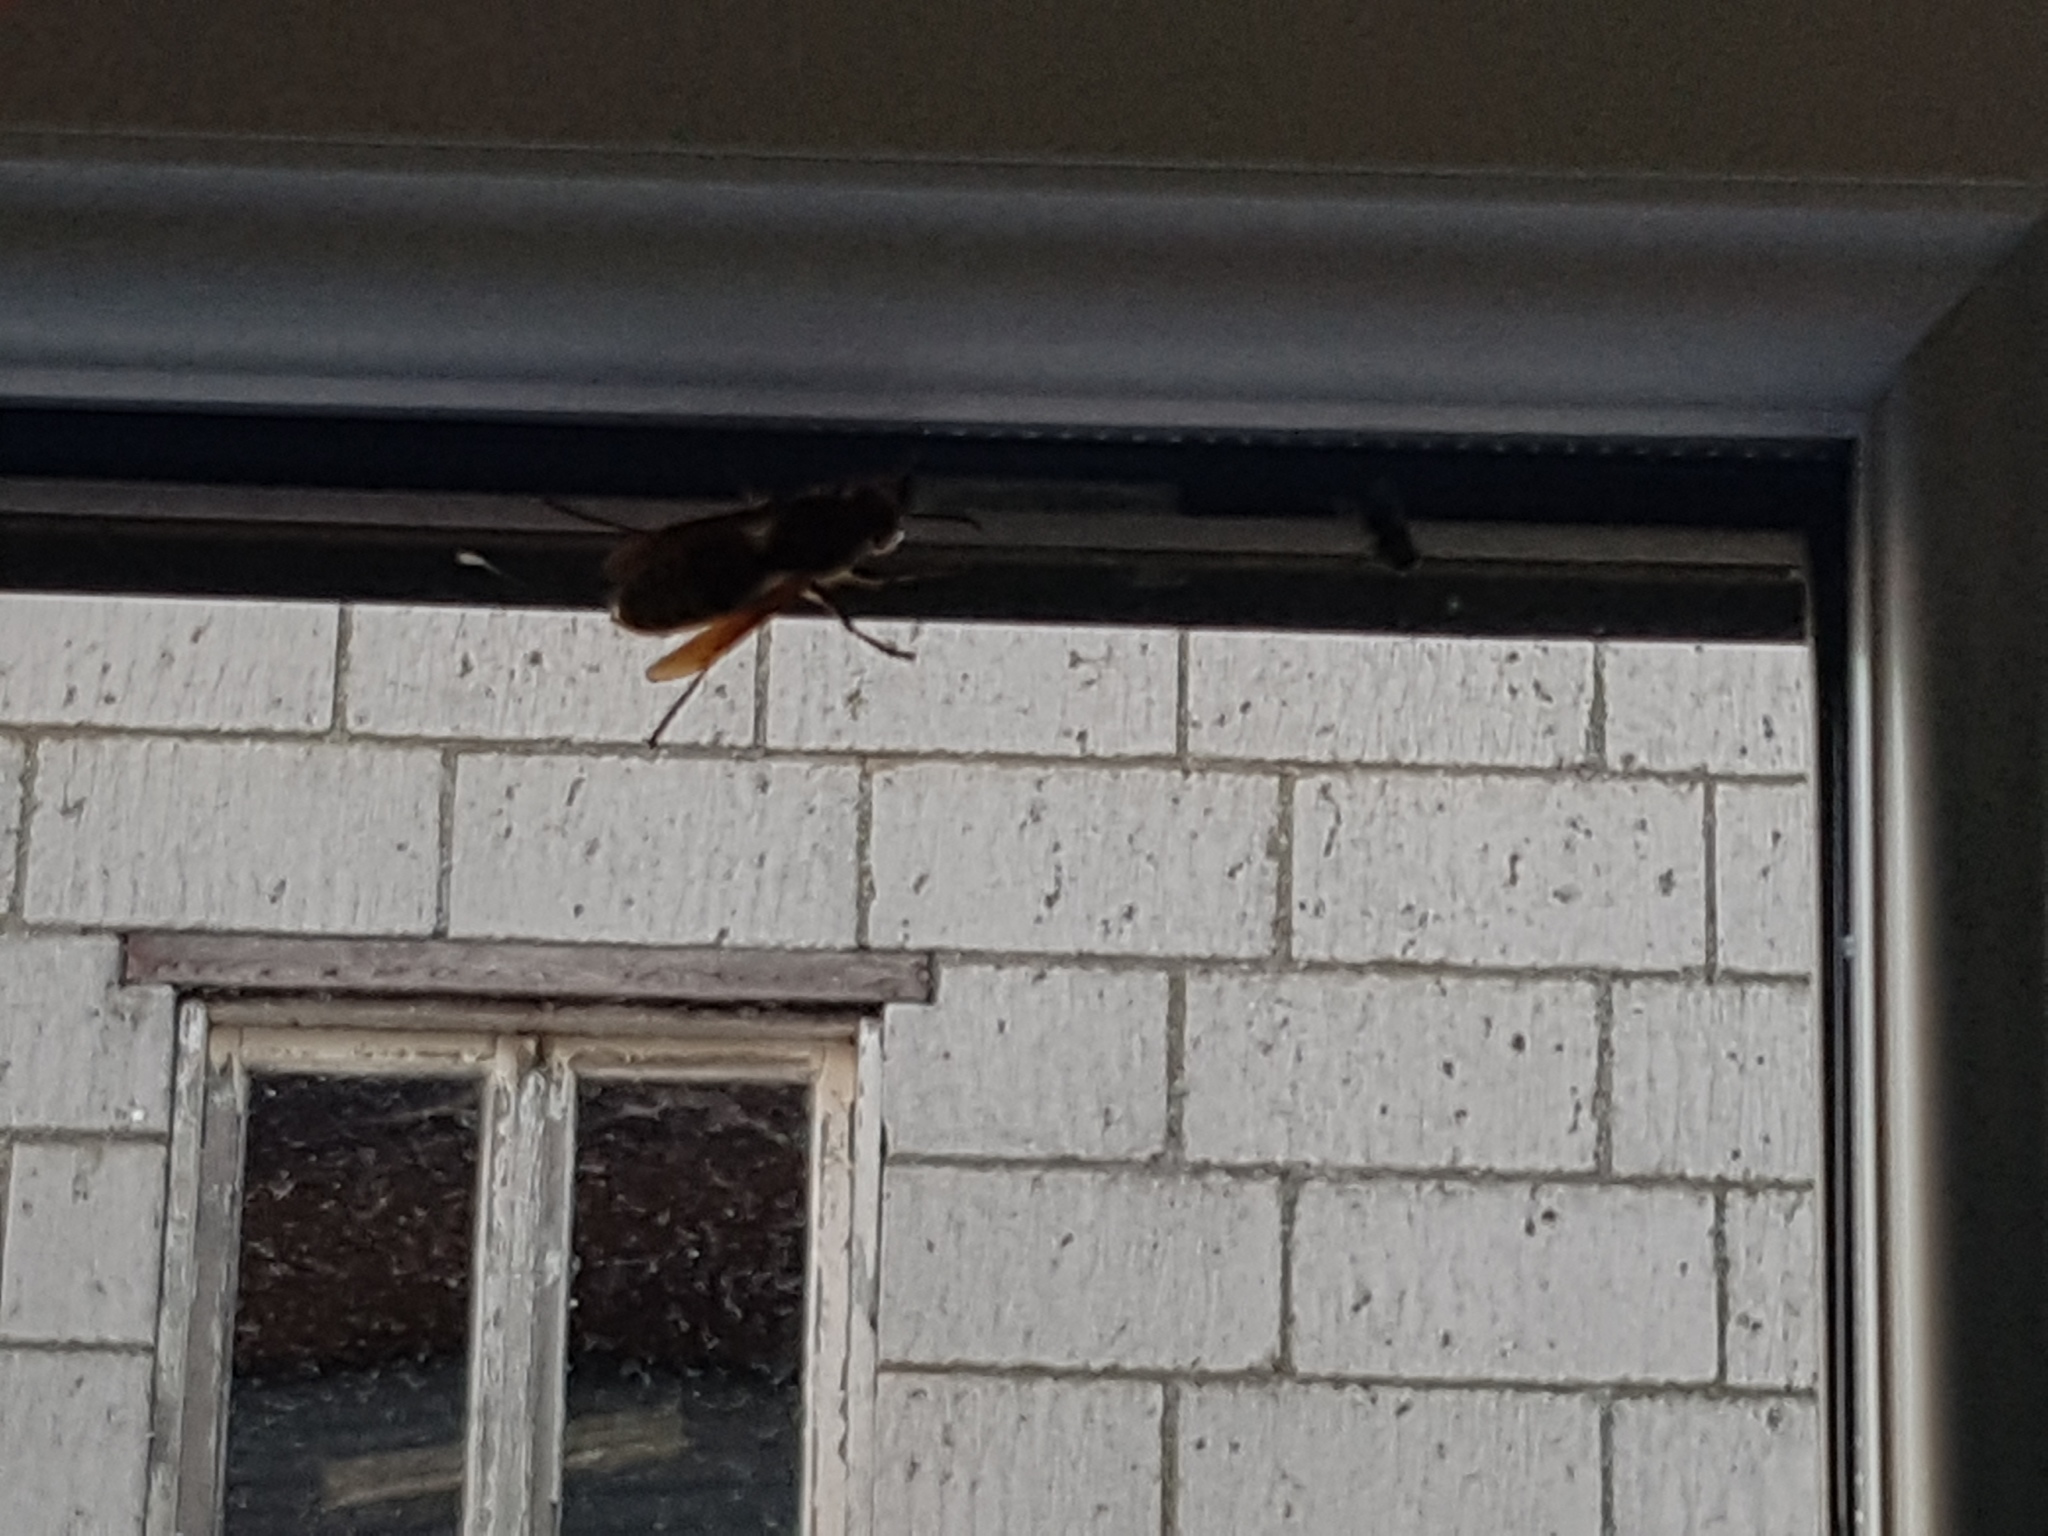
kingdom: Animalia
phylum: Arthropoda
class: Insecta
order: Hymenoptera
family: Vespidae
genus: Vespa
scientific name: Vespa crabro
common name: Hornet
